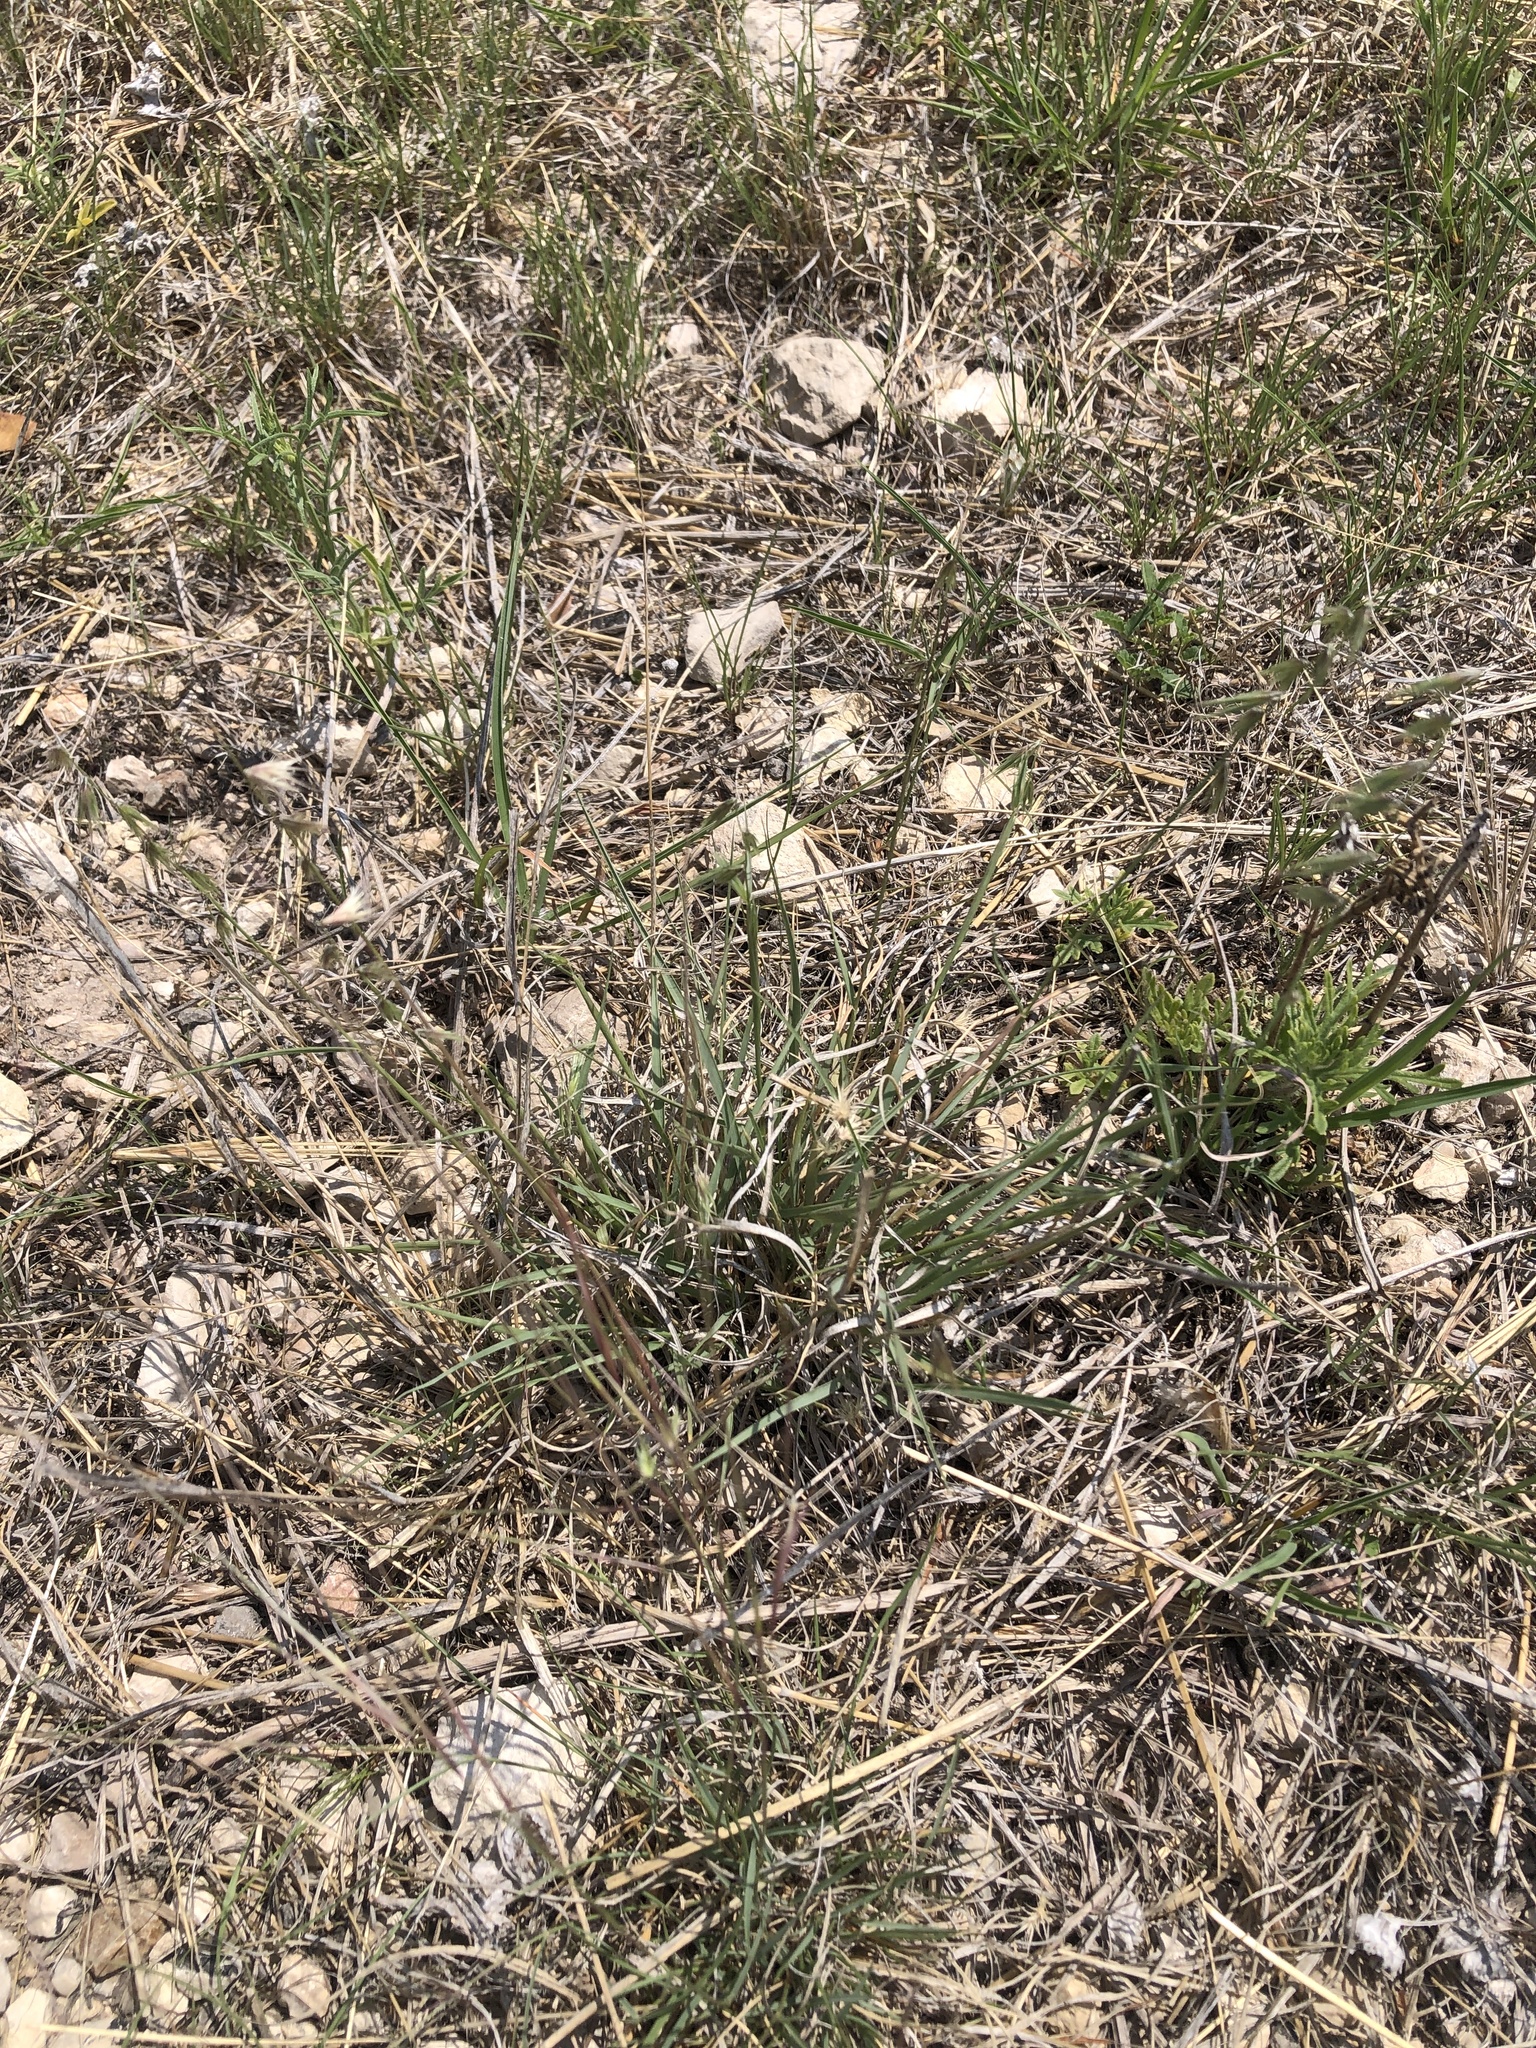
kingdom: Plantae
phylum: Tracheophyta
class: Liliopsida
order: Poales
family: Poaceae
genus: Bouteloua
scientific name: Bouteloua rigidiseta
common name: Texas grama
